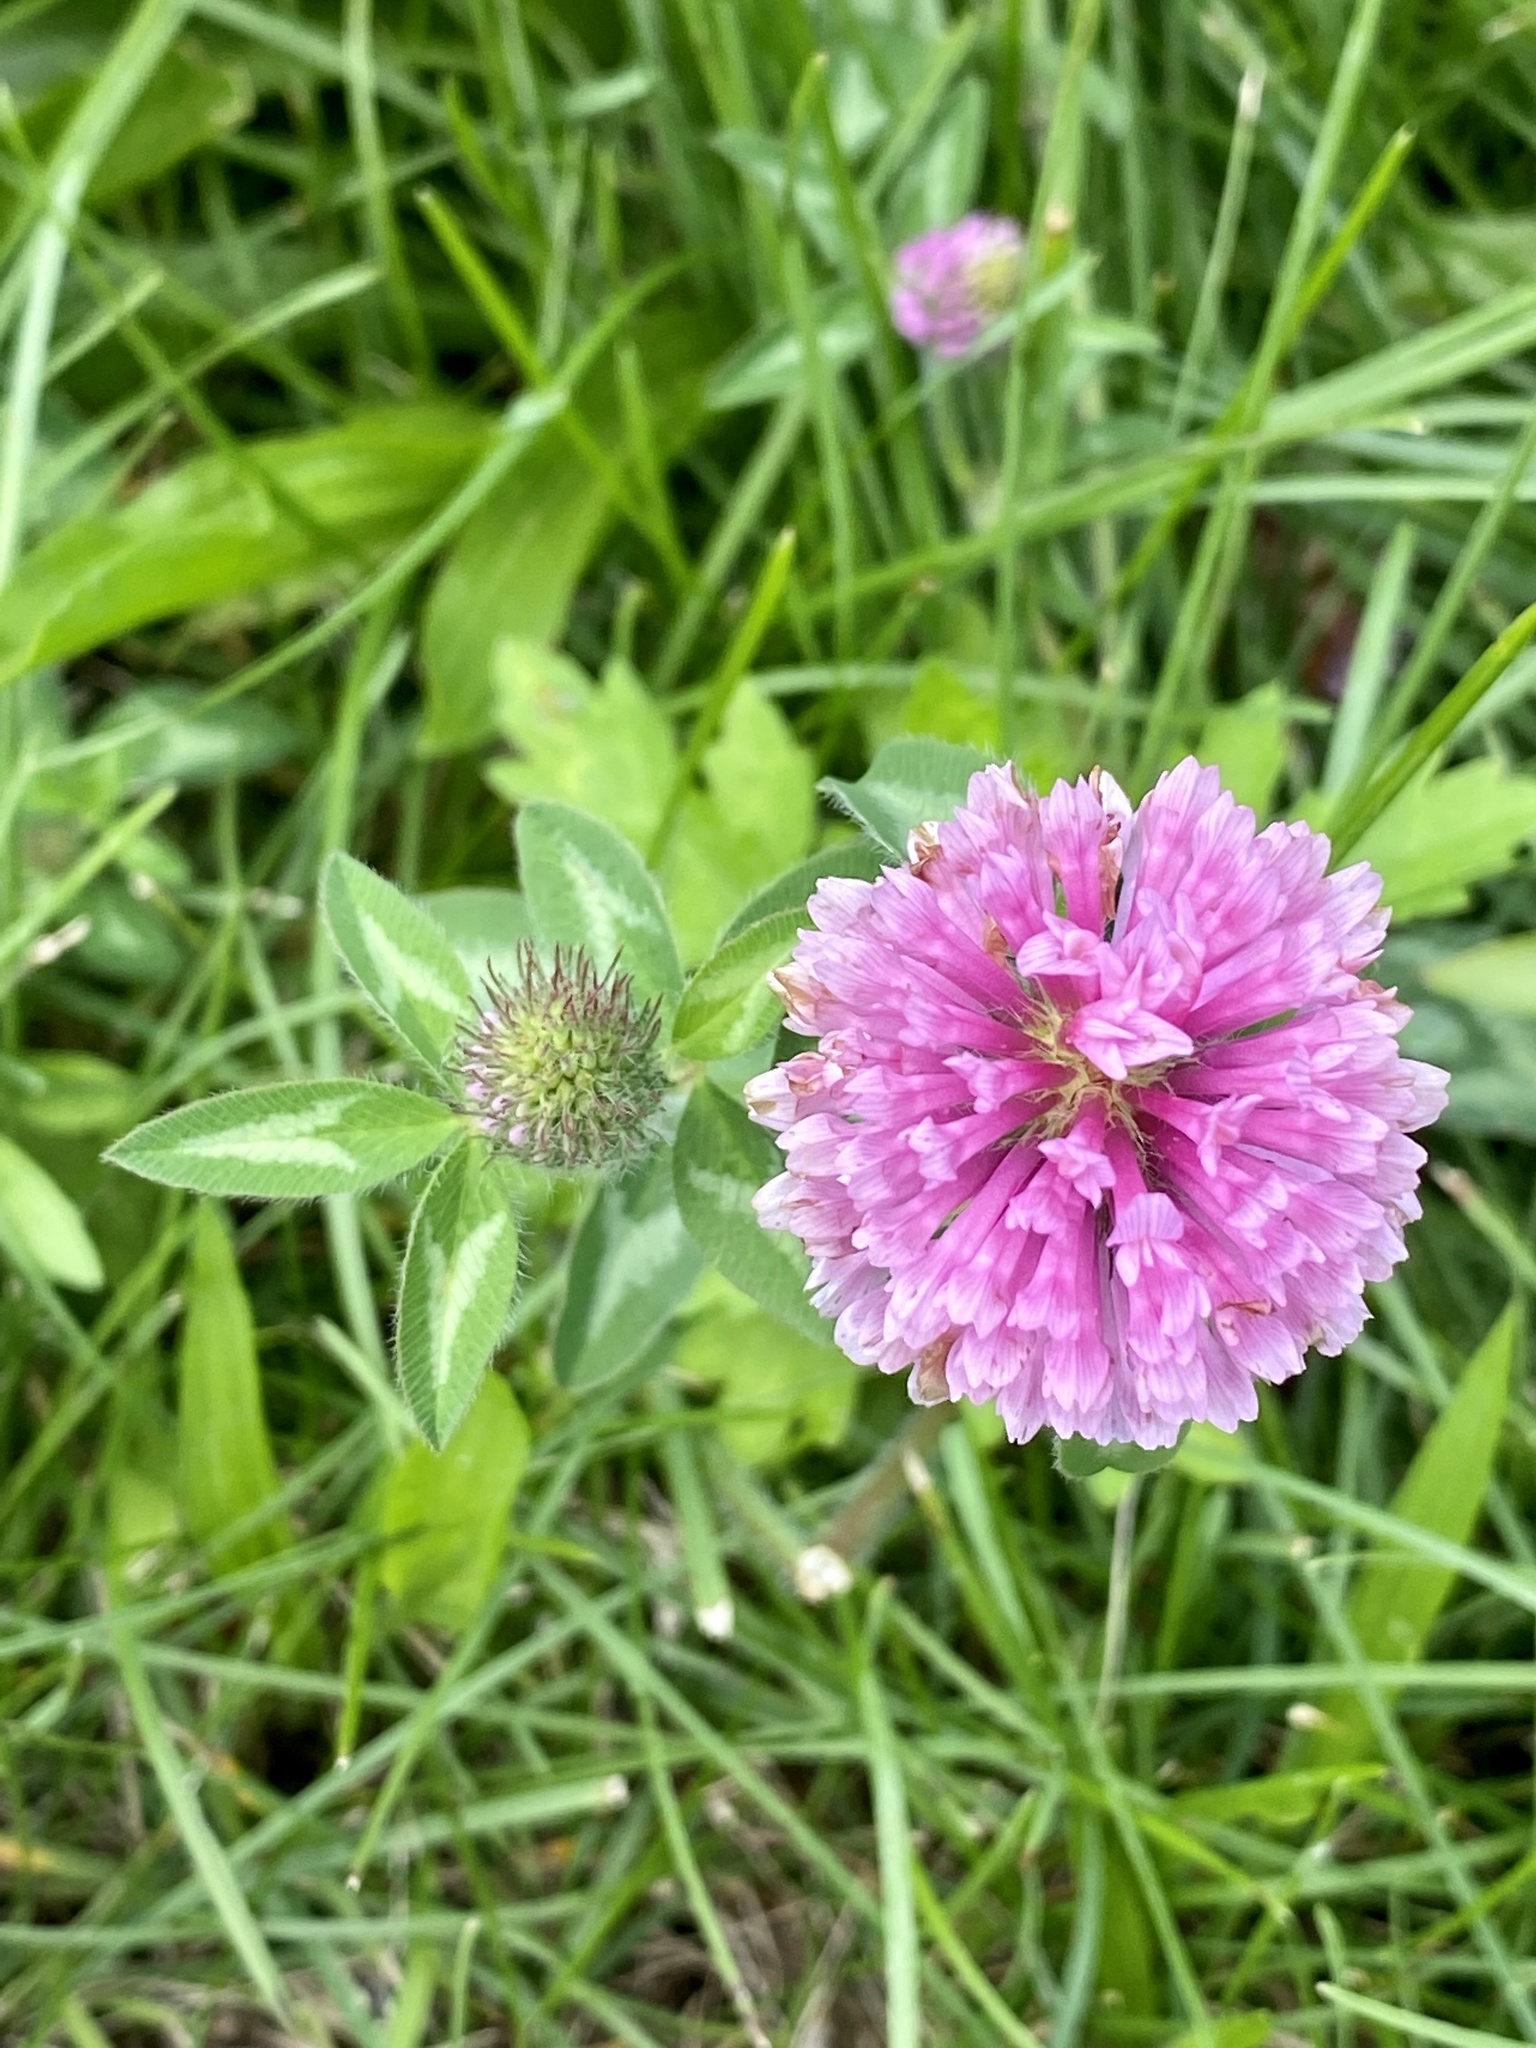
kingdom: Plantae
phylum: Tracheophyta
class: Magnoliopsida
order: Fabales
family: Fabaceae
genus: Trifolium
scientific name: Trifolium pratense
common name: Red clover
